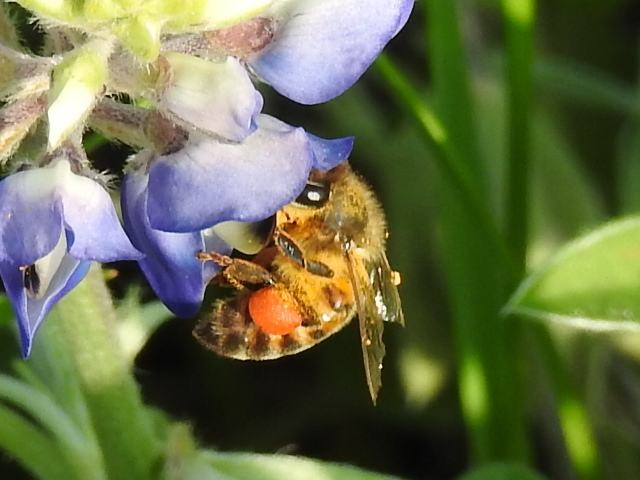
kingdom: Animalia
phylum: Arthropoda
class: Insecta
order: Hymenoptera
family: Apidae
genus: Apis
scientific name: Apis mellifera
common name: Honey bee
